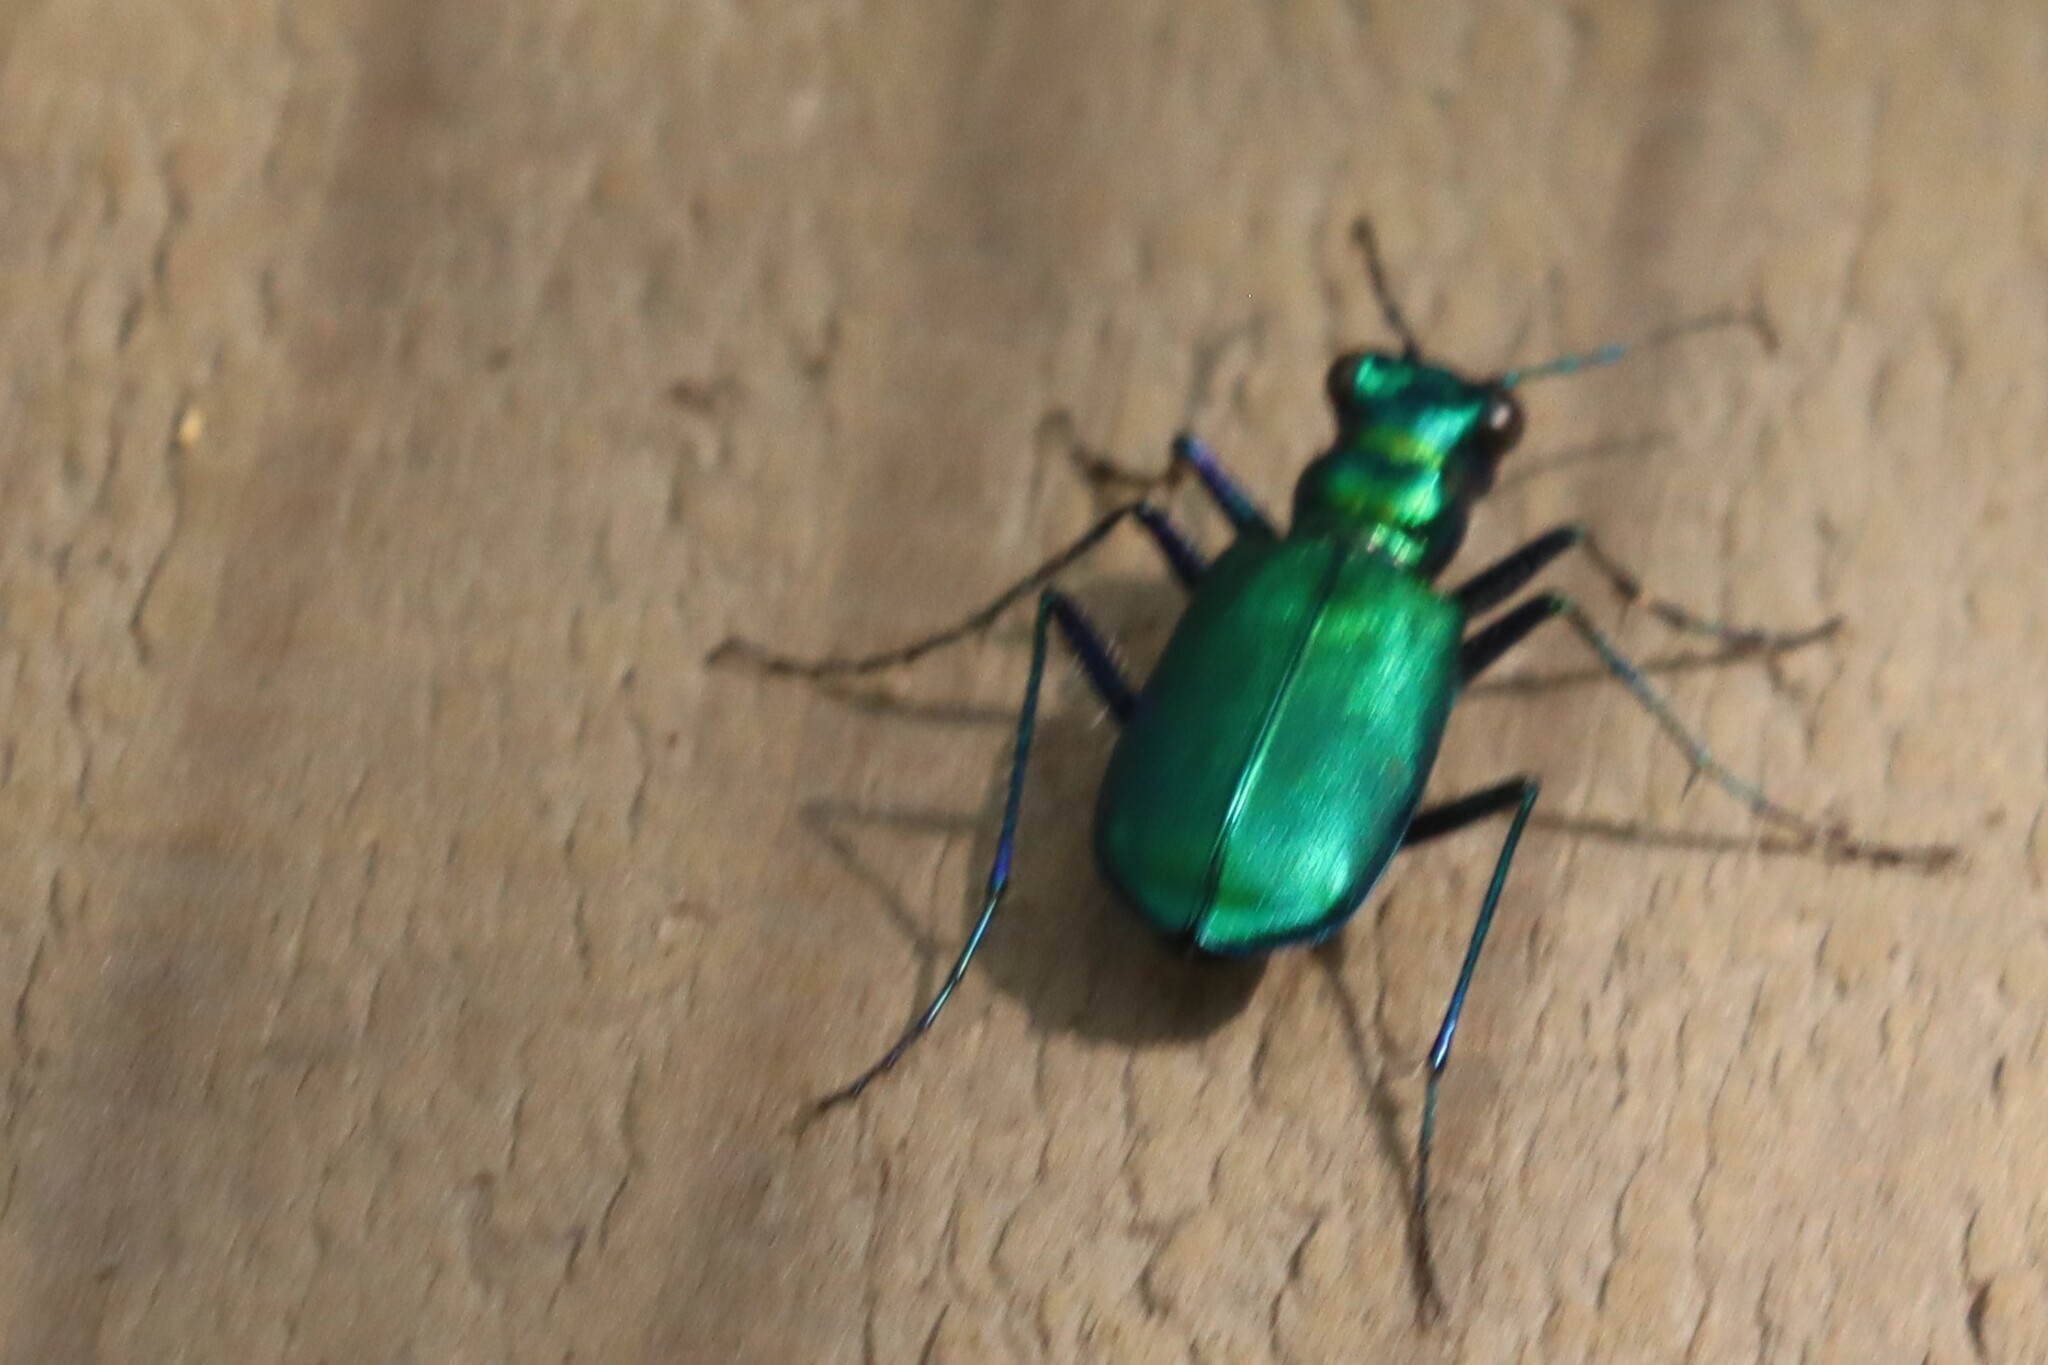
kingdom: Animalia
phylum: Arthropoda
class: Insecta
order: Coleoptera
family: Carabidae
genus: Cicindela
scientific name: Cicindela sexguttata
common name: Six-spotted tiger beetle
